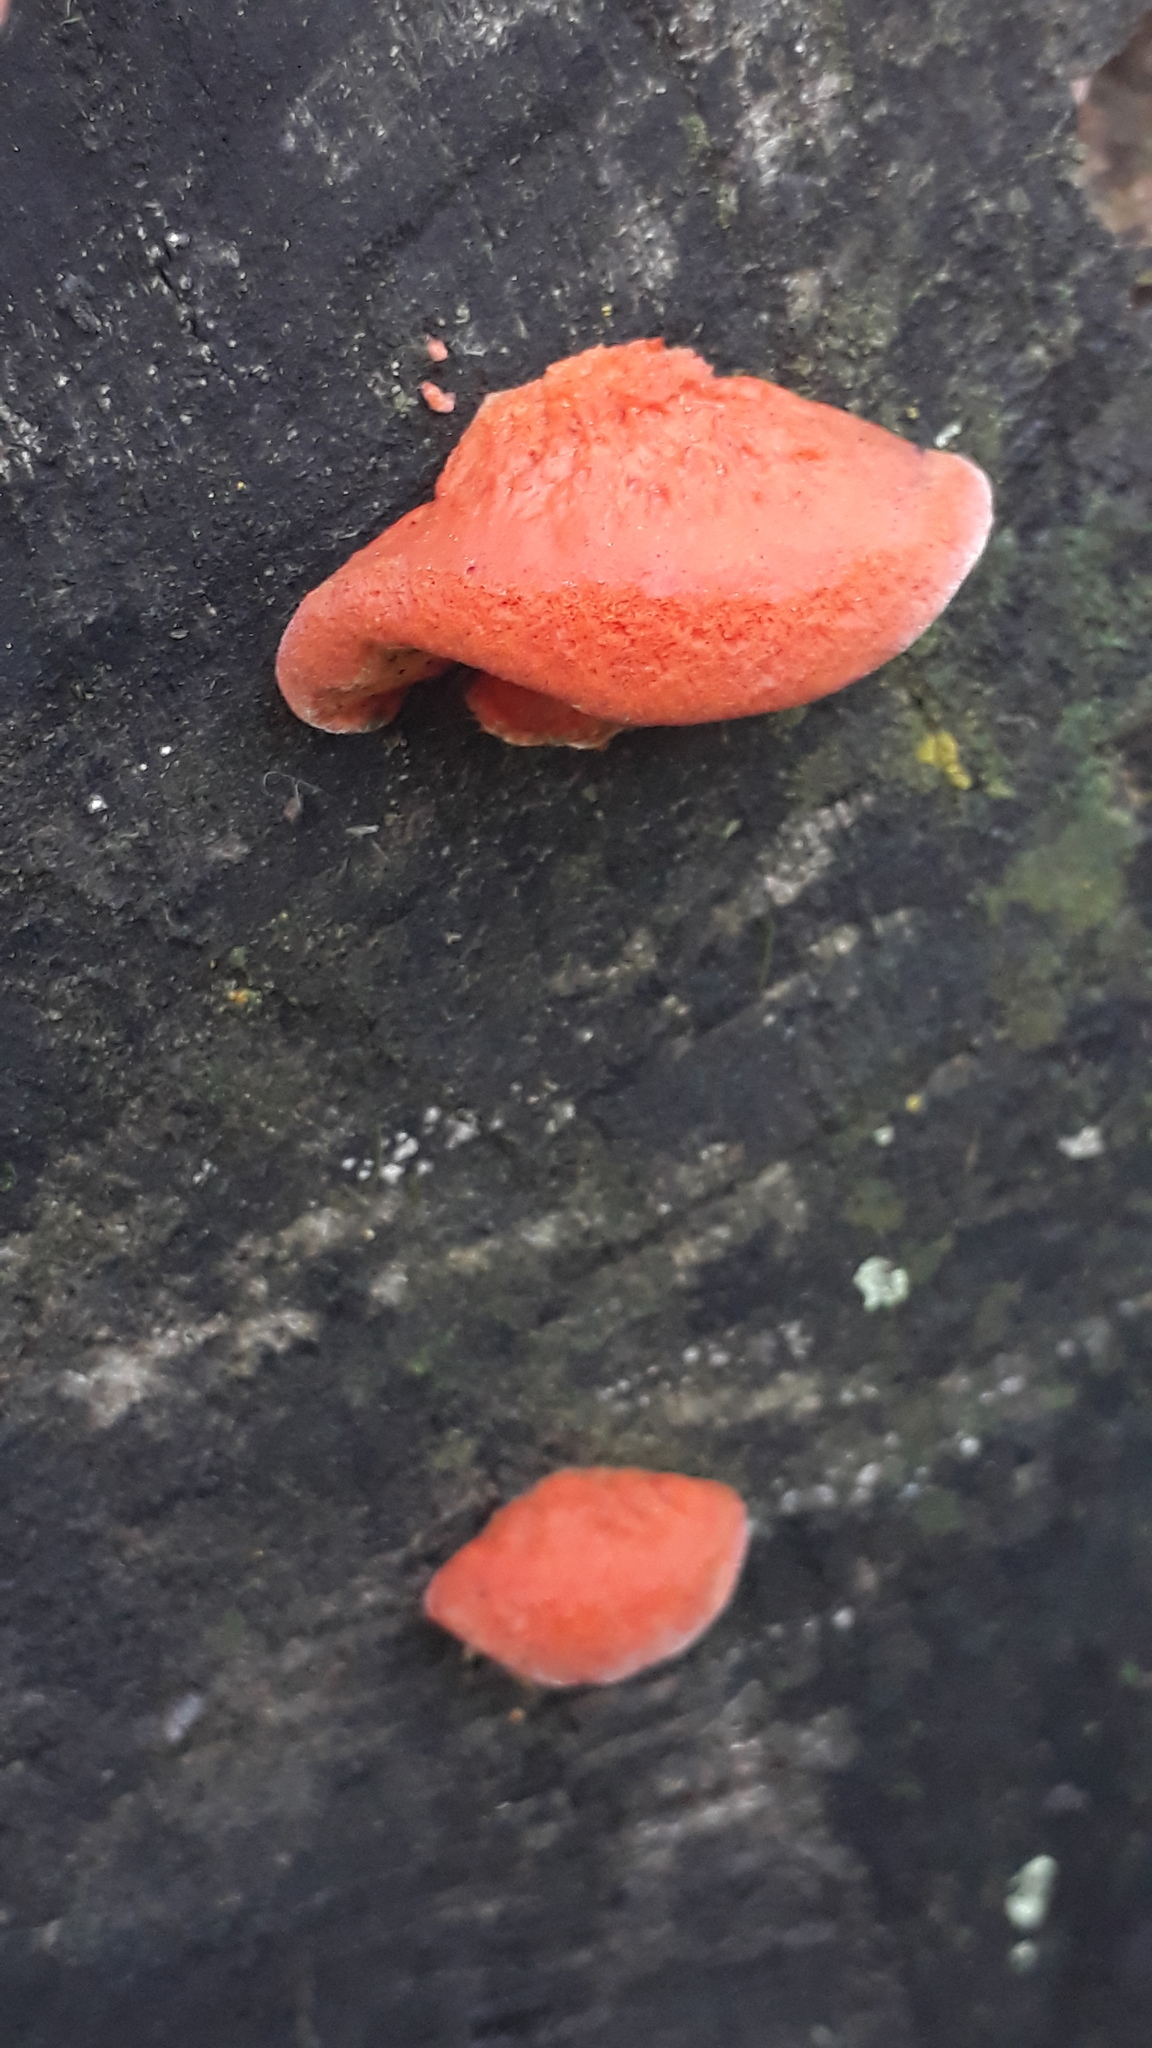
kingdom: Fungi
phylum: Basidiomycota
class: Agaricomycetes
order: Polyporales
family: Polyporaceae
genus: Trametes
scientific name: Trametes coccinea
